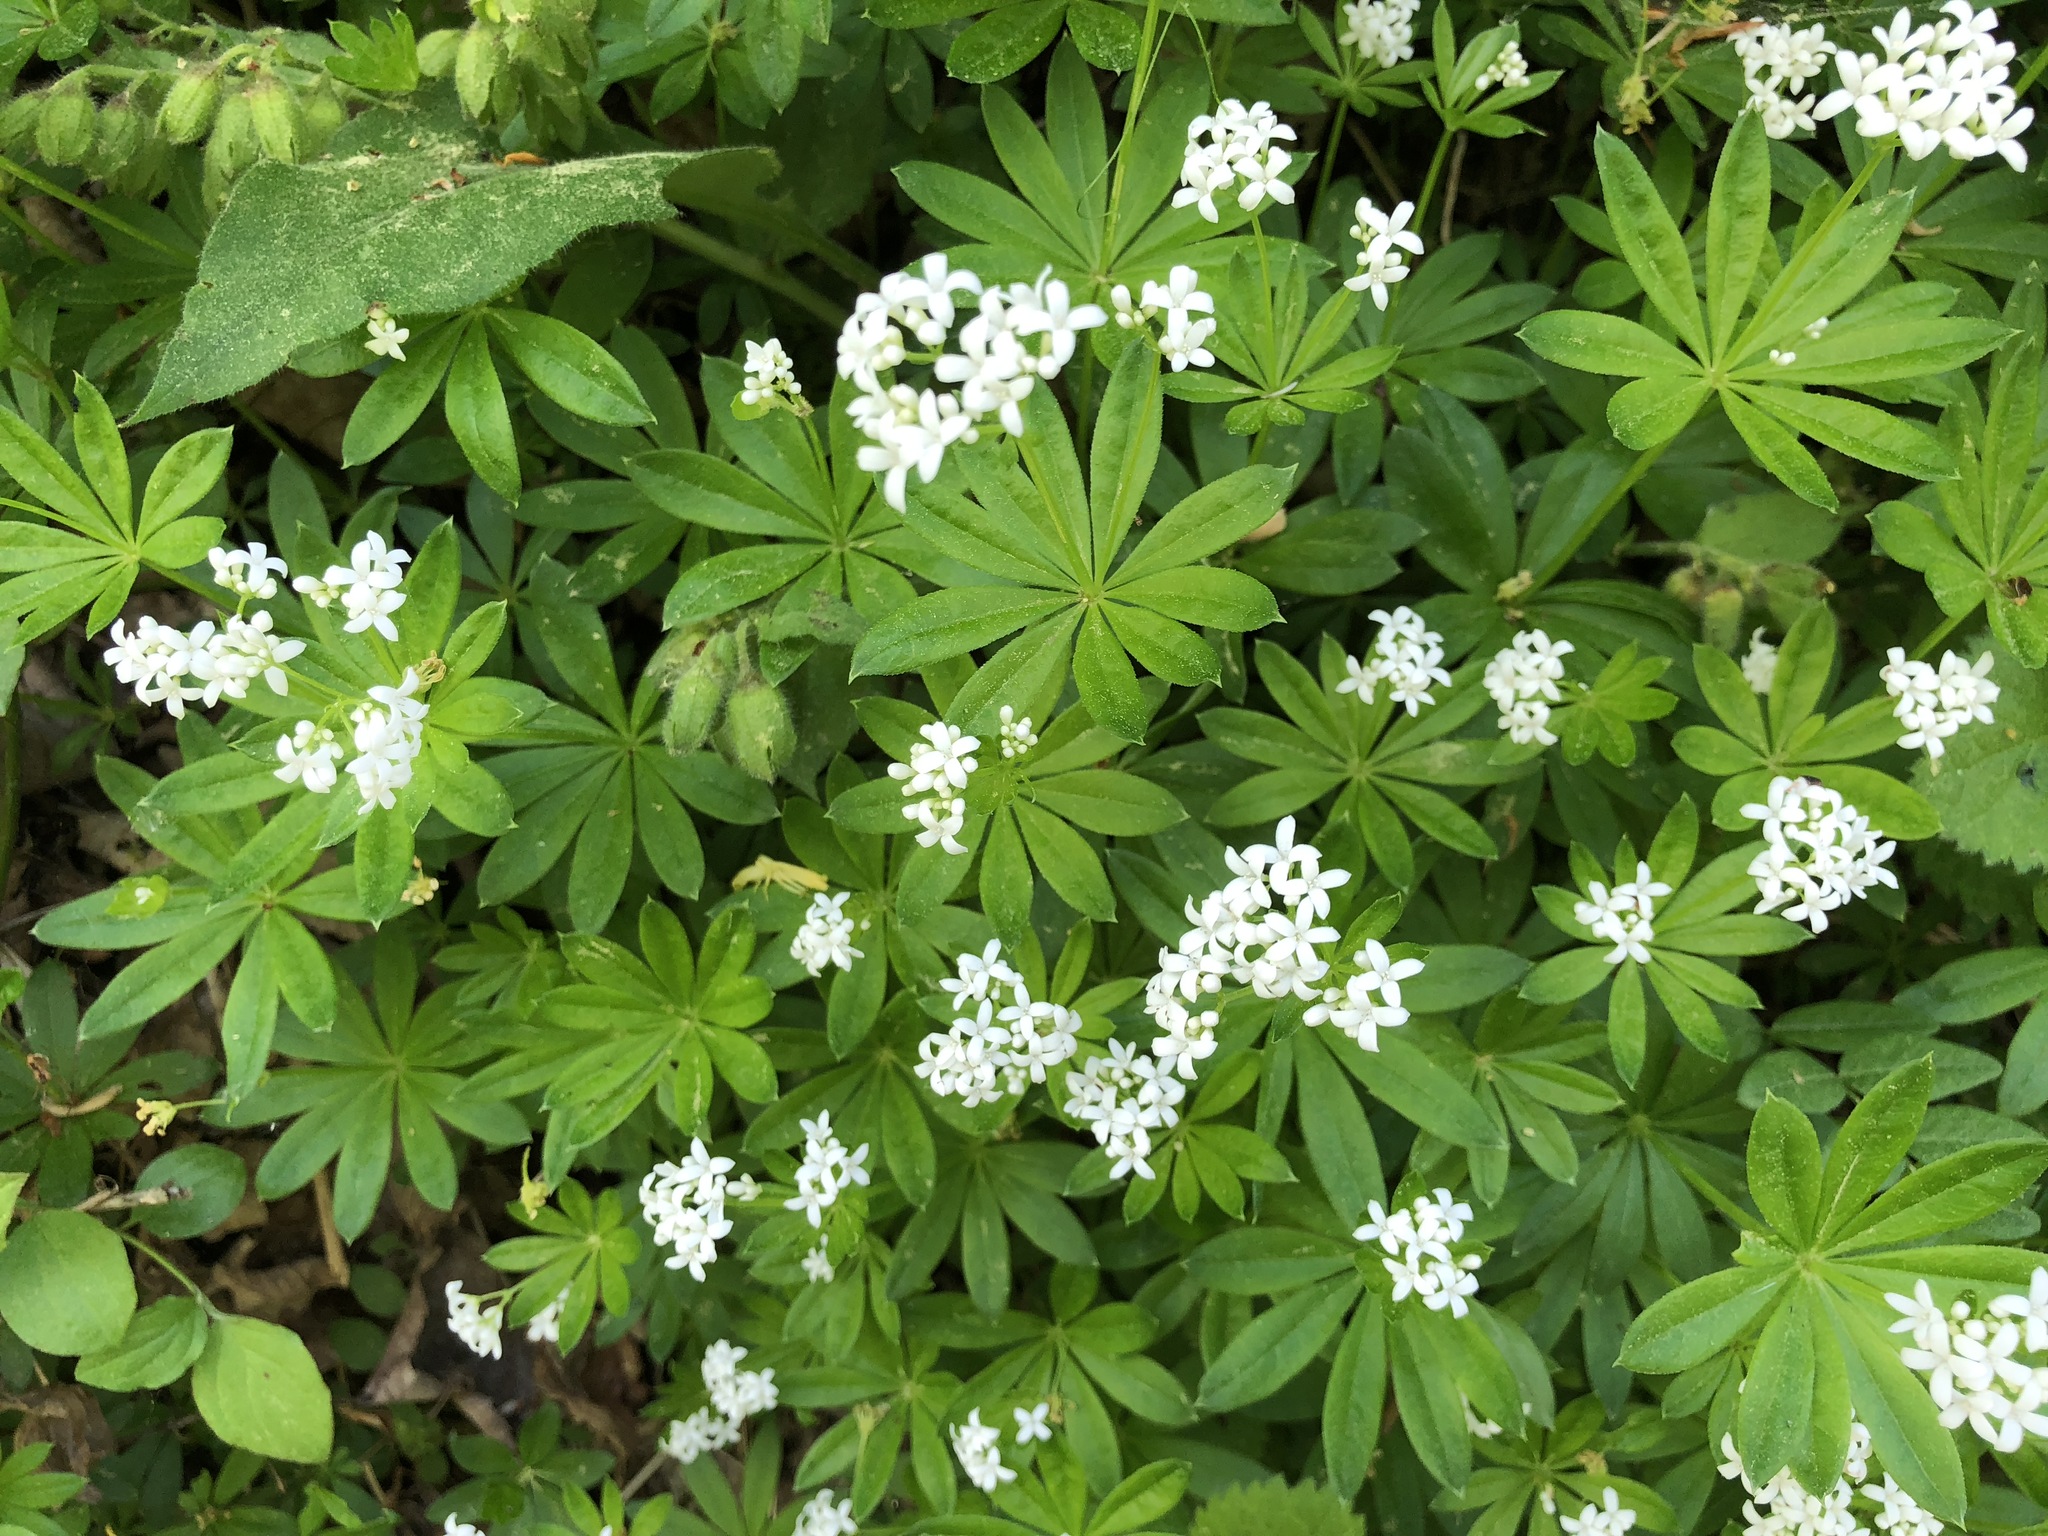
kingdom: Plantae
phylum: Tracheophyta
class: Magnoliopsida
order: Gentianales
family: Rubiaceae
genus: Galium
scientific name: Galium odoratum
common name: Sweet woodruff
